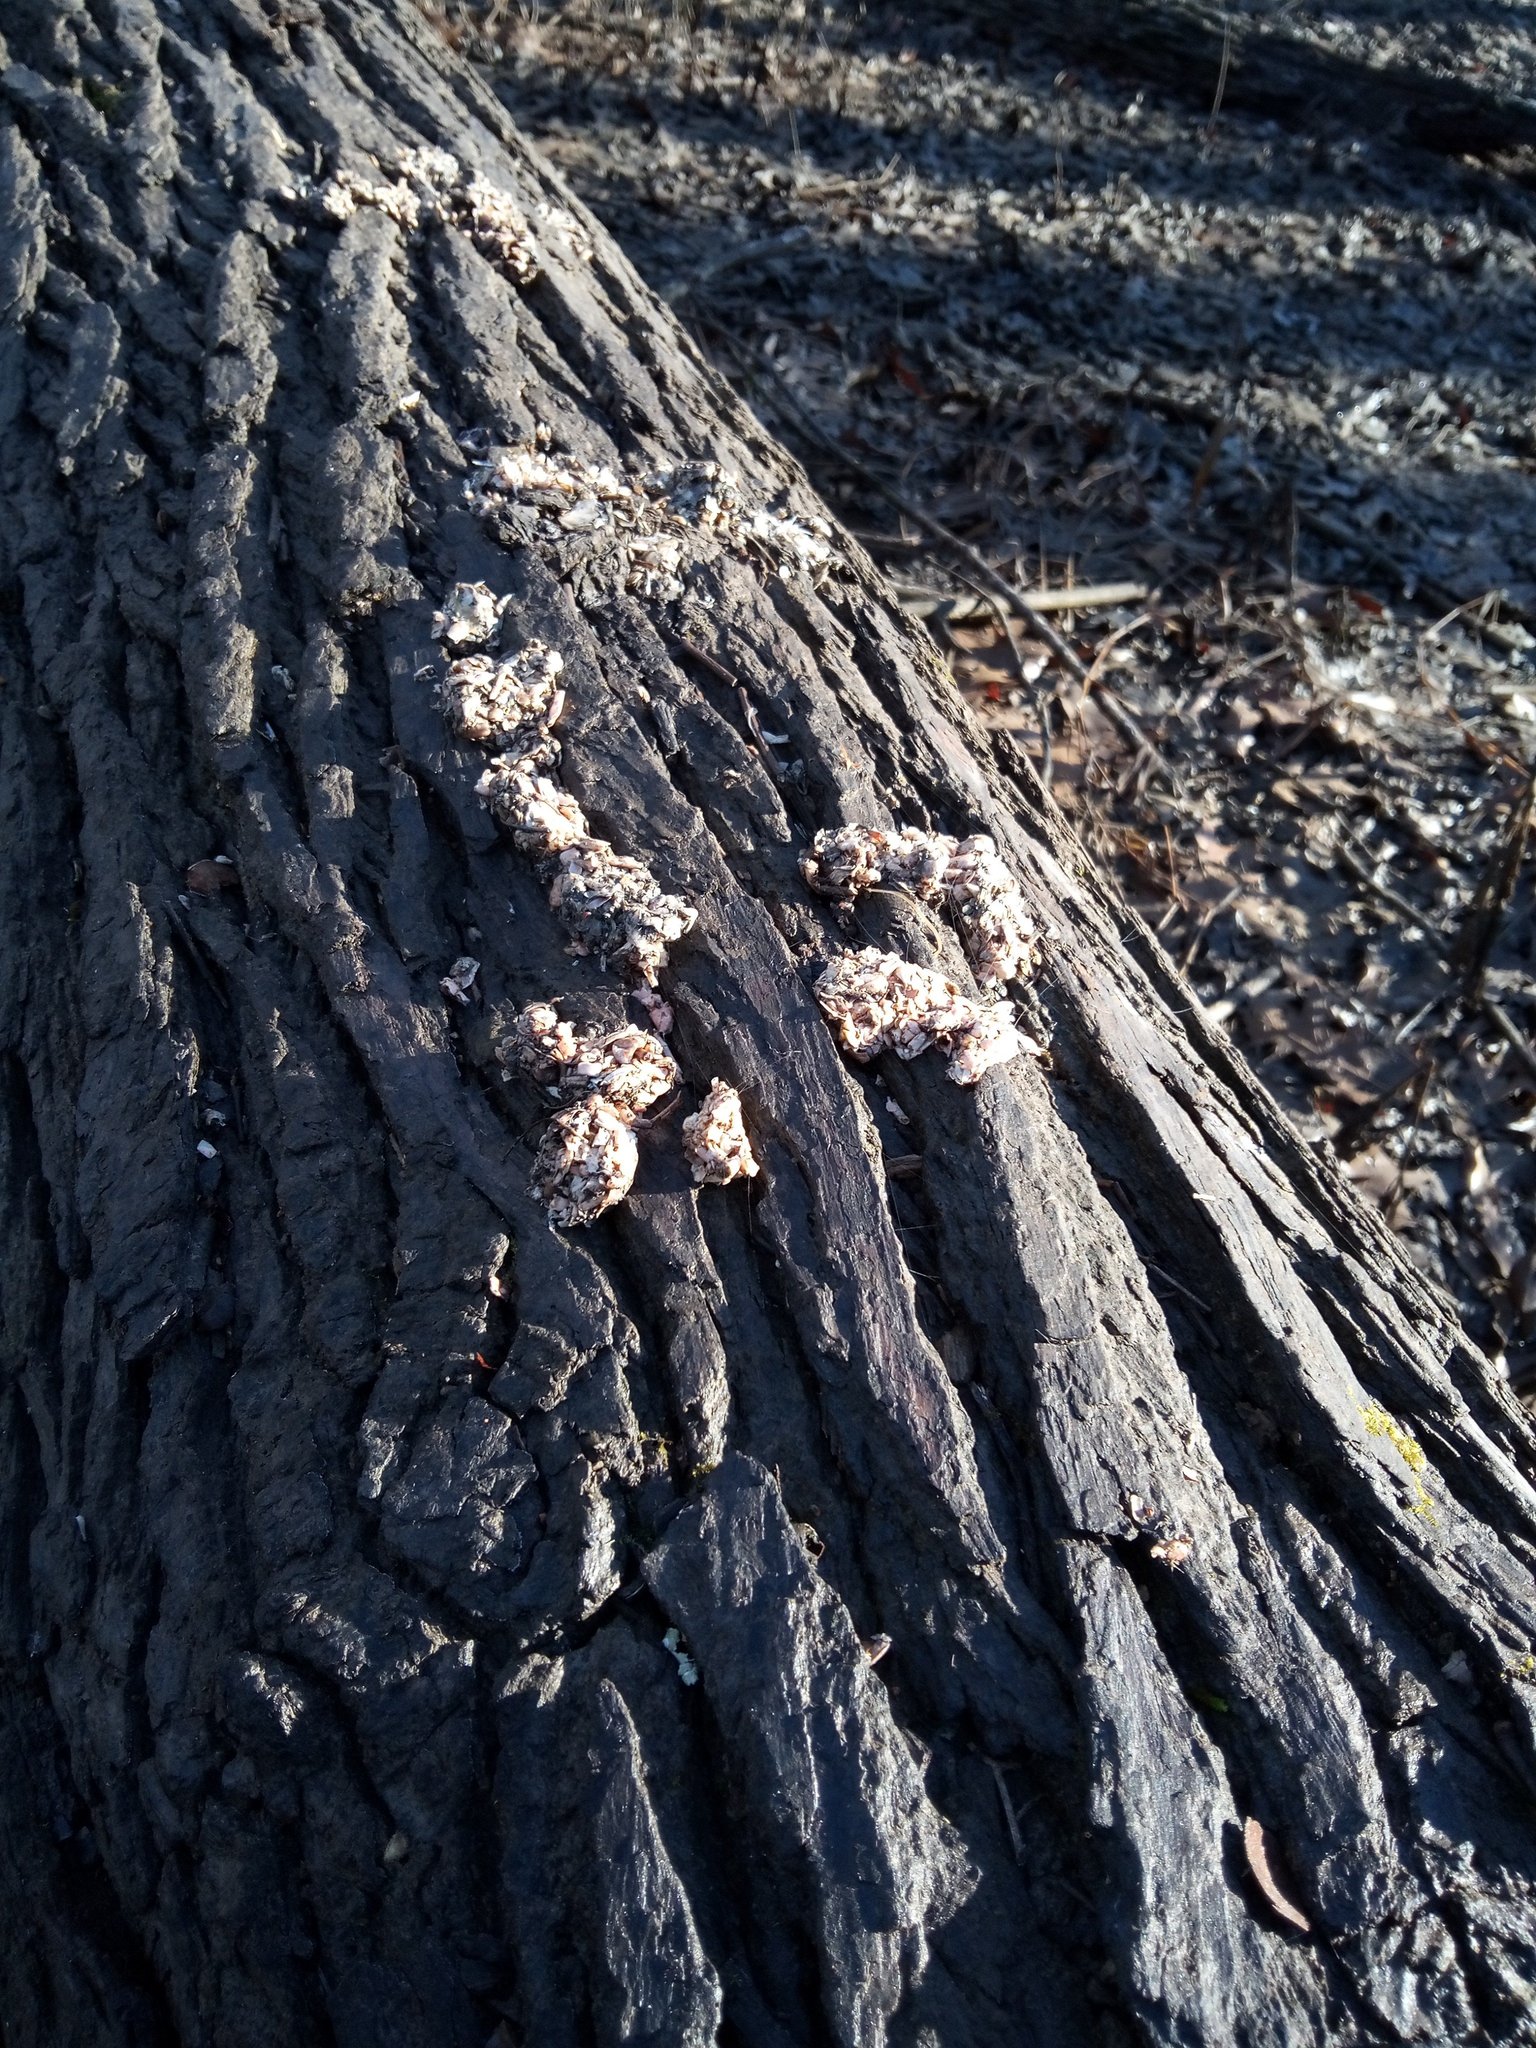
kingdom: Animalia
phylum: Chordata
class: Mammalia
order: Carnivora
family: Mustelidae
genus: Lontra
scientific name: Lontra canadensis
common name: North american river otter
